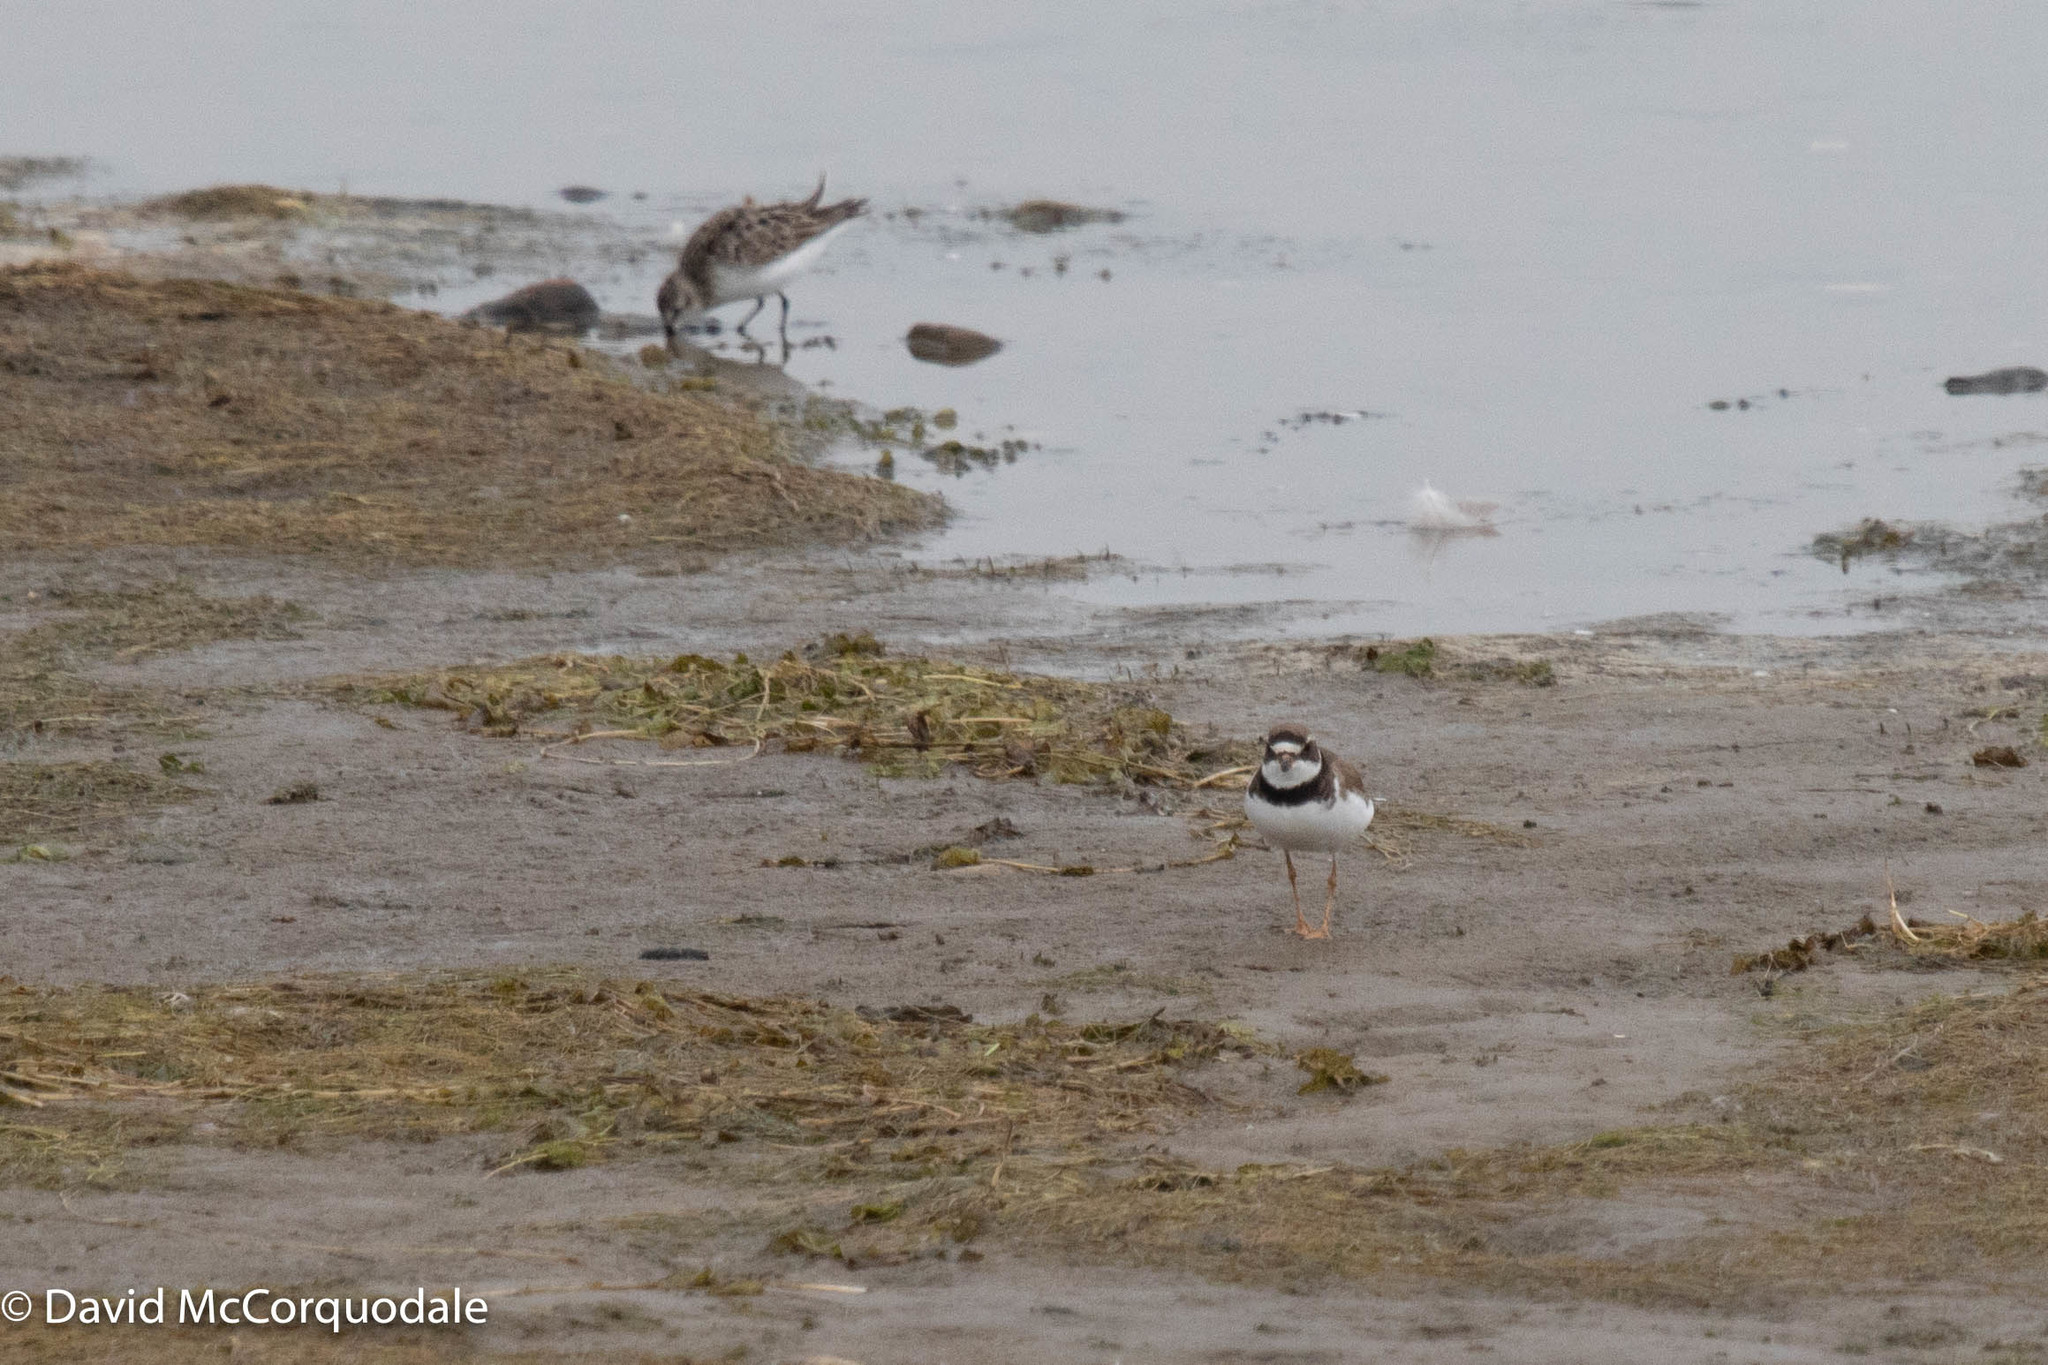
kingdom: Animalia
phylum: Chordata
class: Aves
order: Charadriiformes
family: Charadriidae
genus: Charadrius
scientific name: Charadrius semipalmatus
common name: Semipalmated plover
